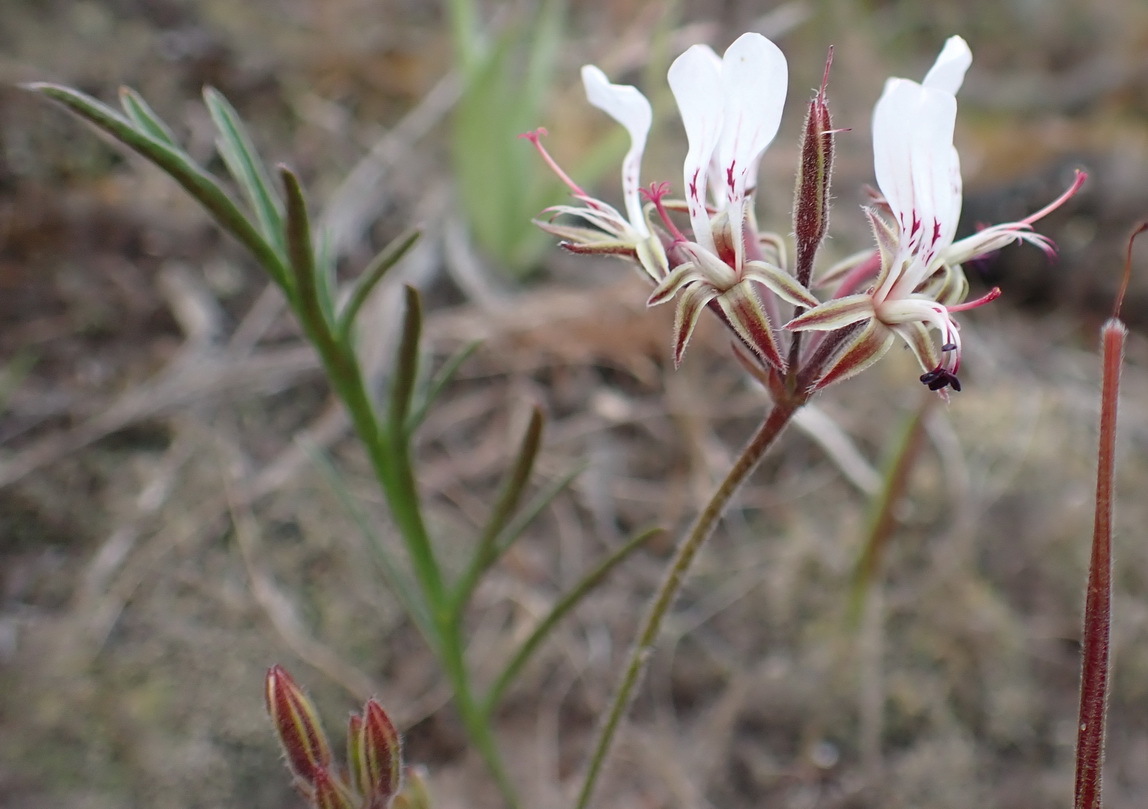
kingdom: Plantae
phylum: Tracheophyta
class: Magnoliopsida
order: Geraniales
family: Geraniaceae
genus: Pelargonium
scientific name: Pelargonium dipetalum
